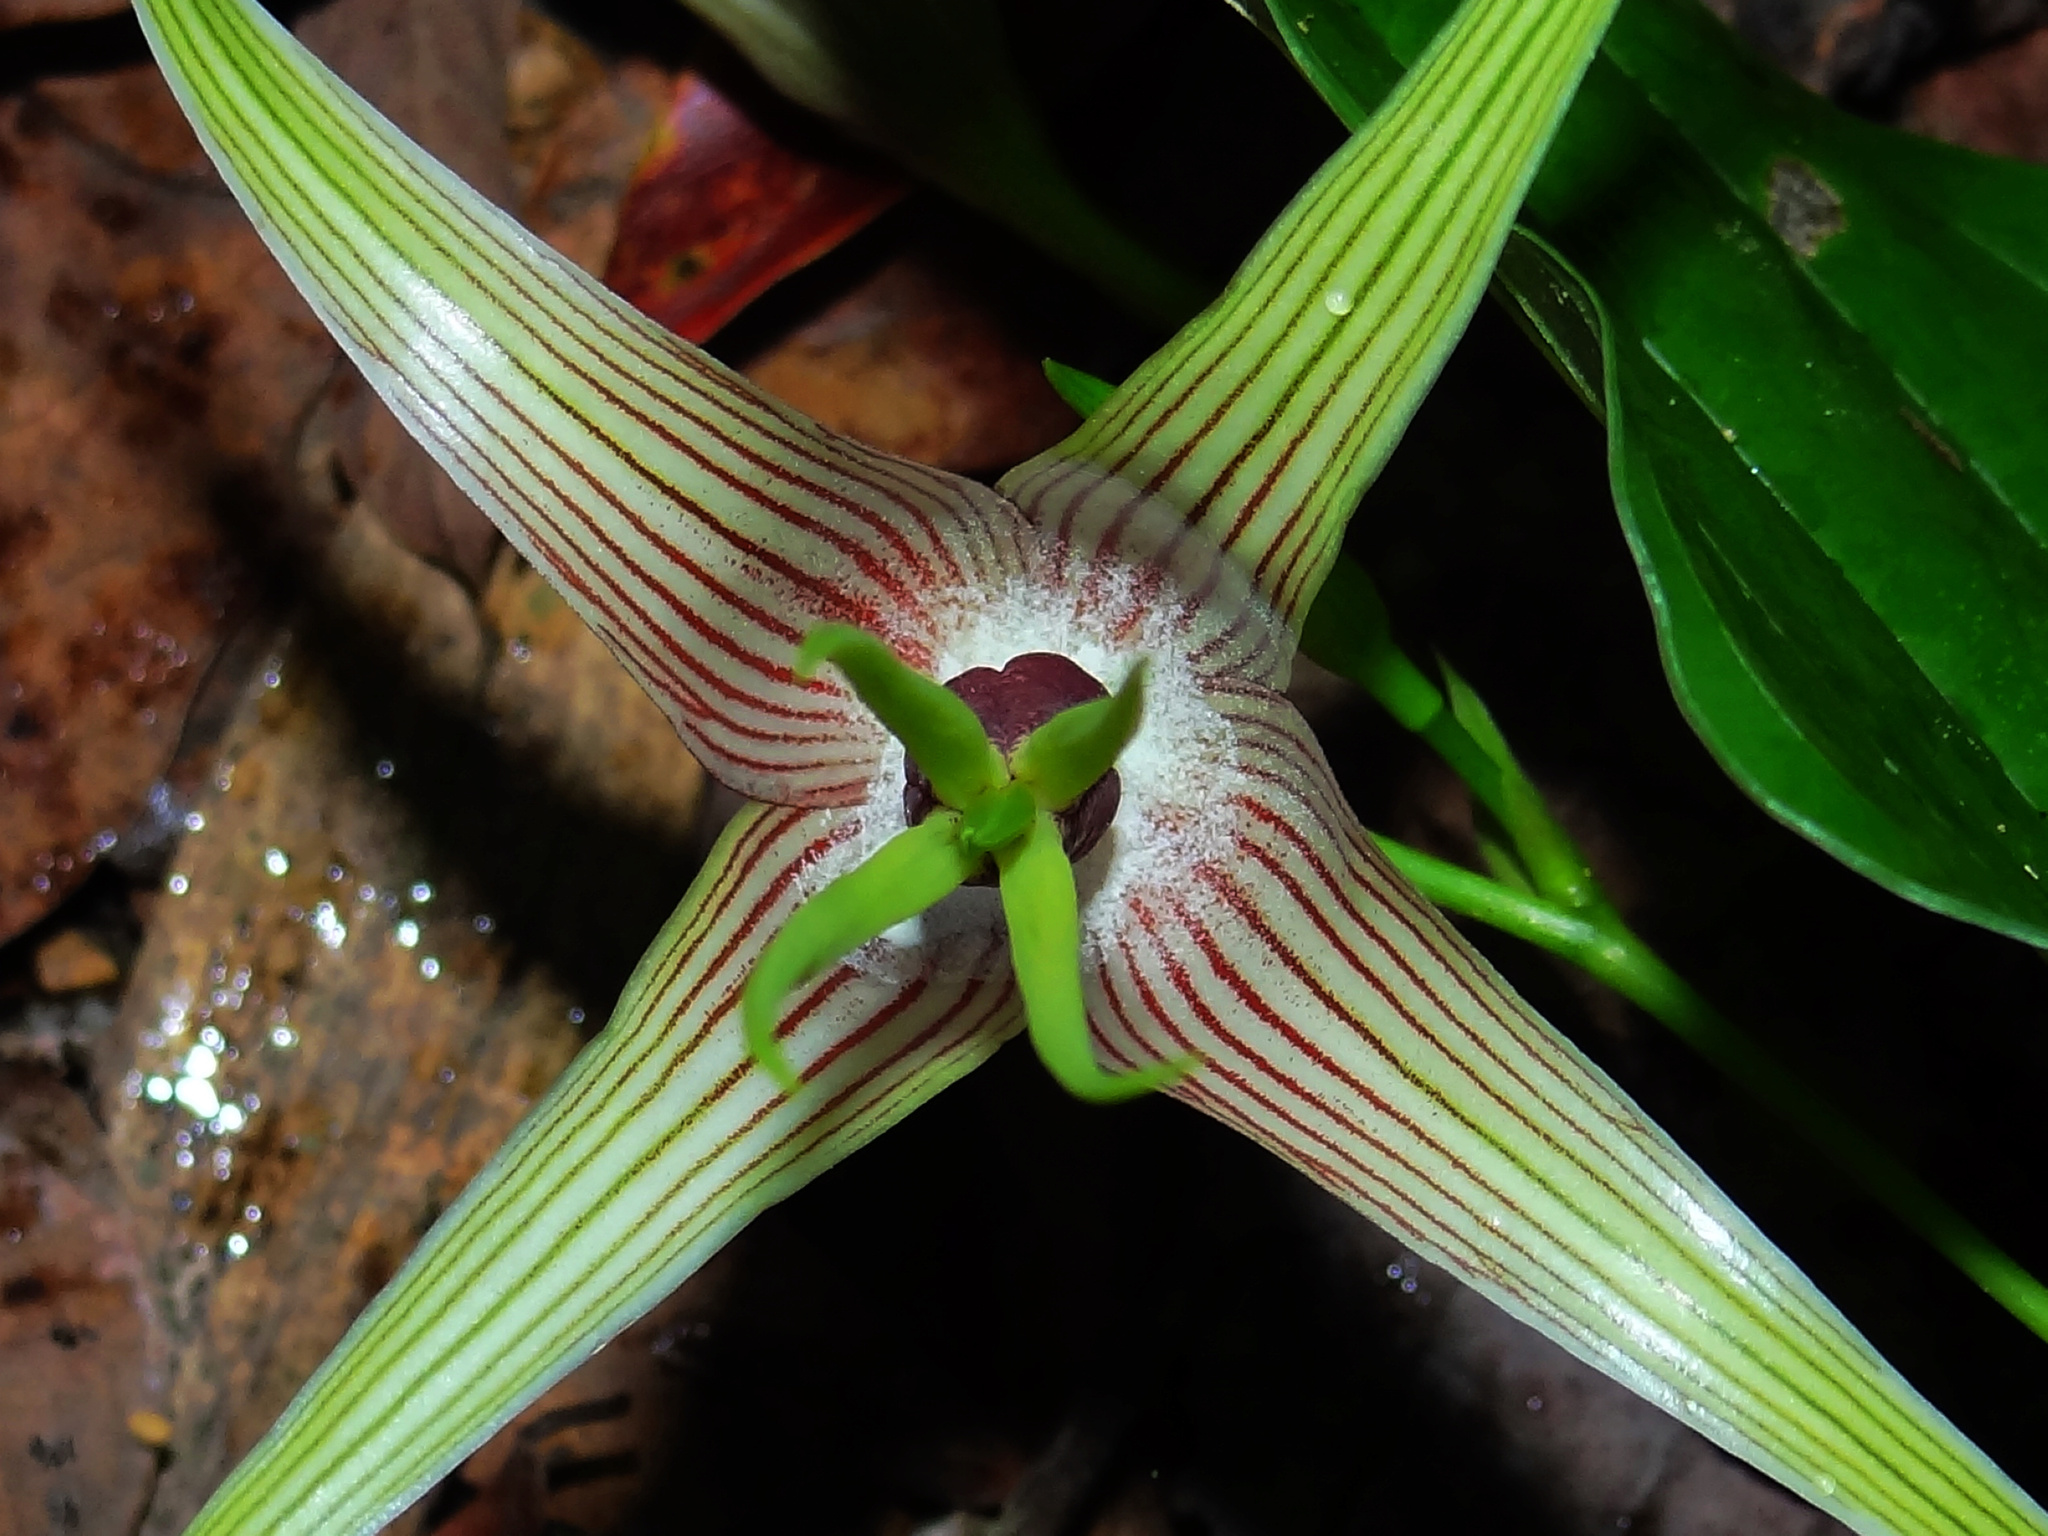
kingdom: Plantae
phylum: Tracheophyta
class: Liliopsida
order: Pandanales
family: Stemonaceae
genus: Stemona
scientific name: Stemona tuberosa
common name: Stemona
